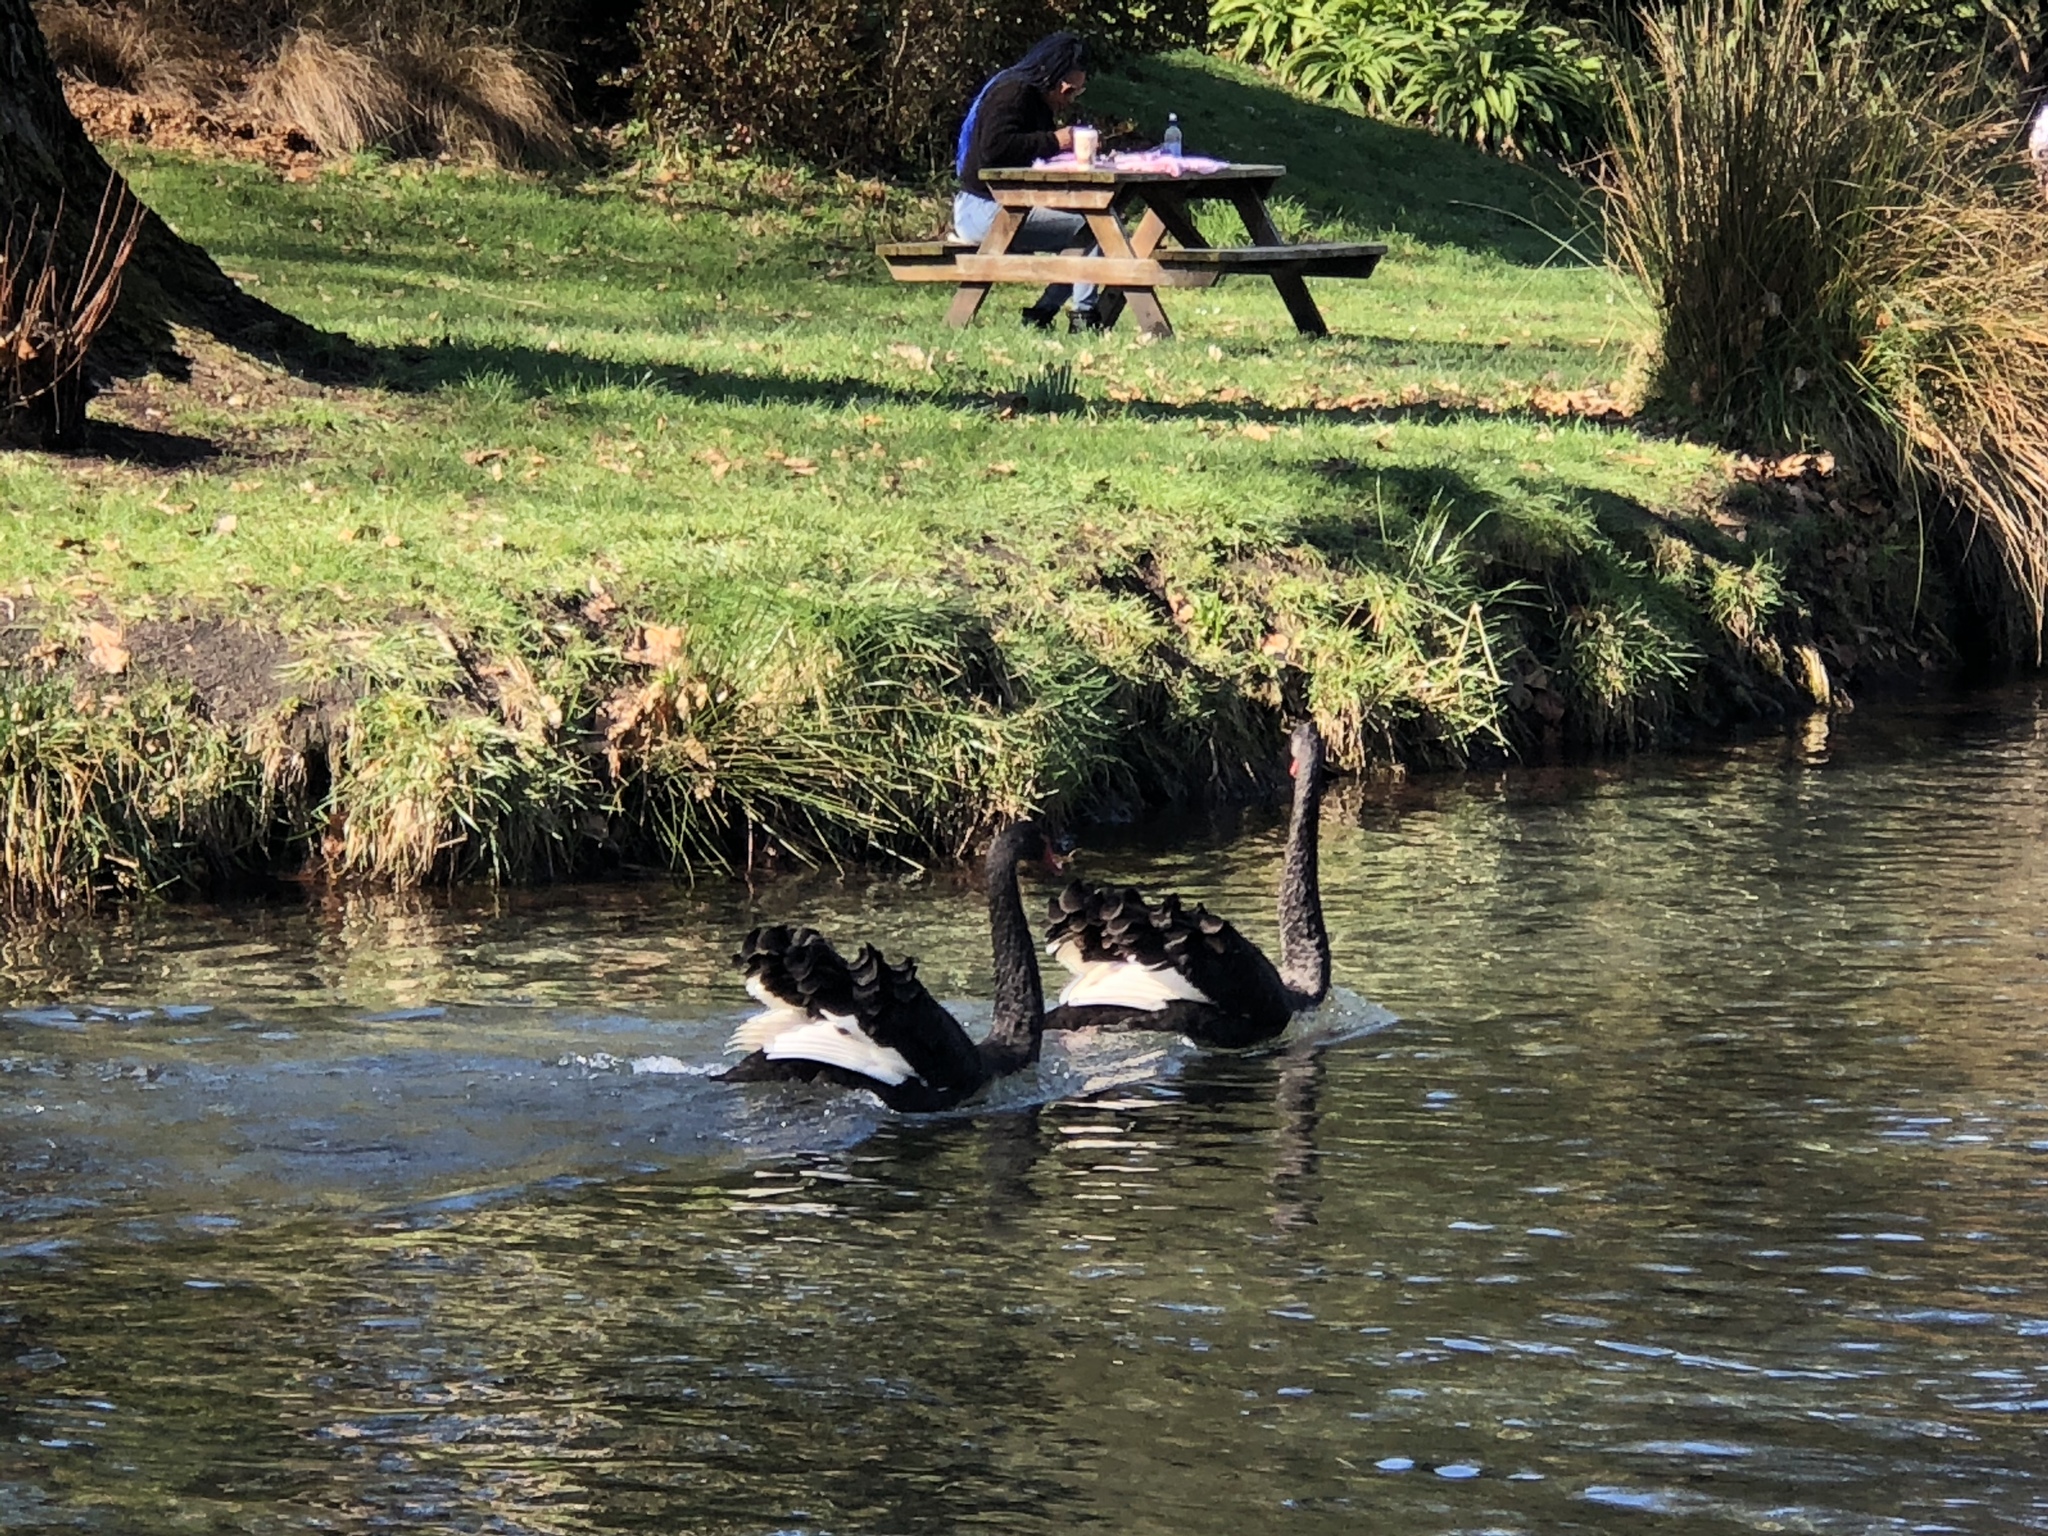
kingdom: Animalia
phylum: Chordata
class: Aves
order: Anseriformes
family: Anatidae
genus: Cygnus
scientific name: Cygnus atratus
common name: Black swan
